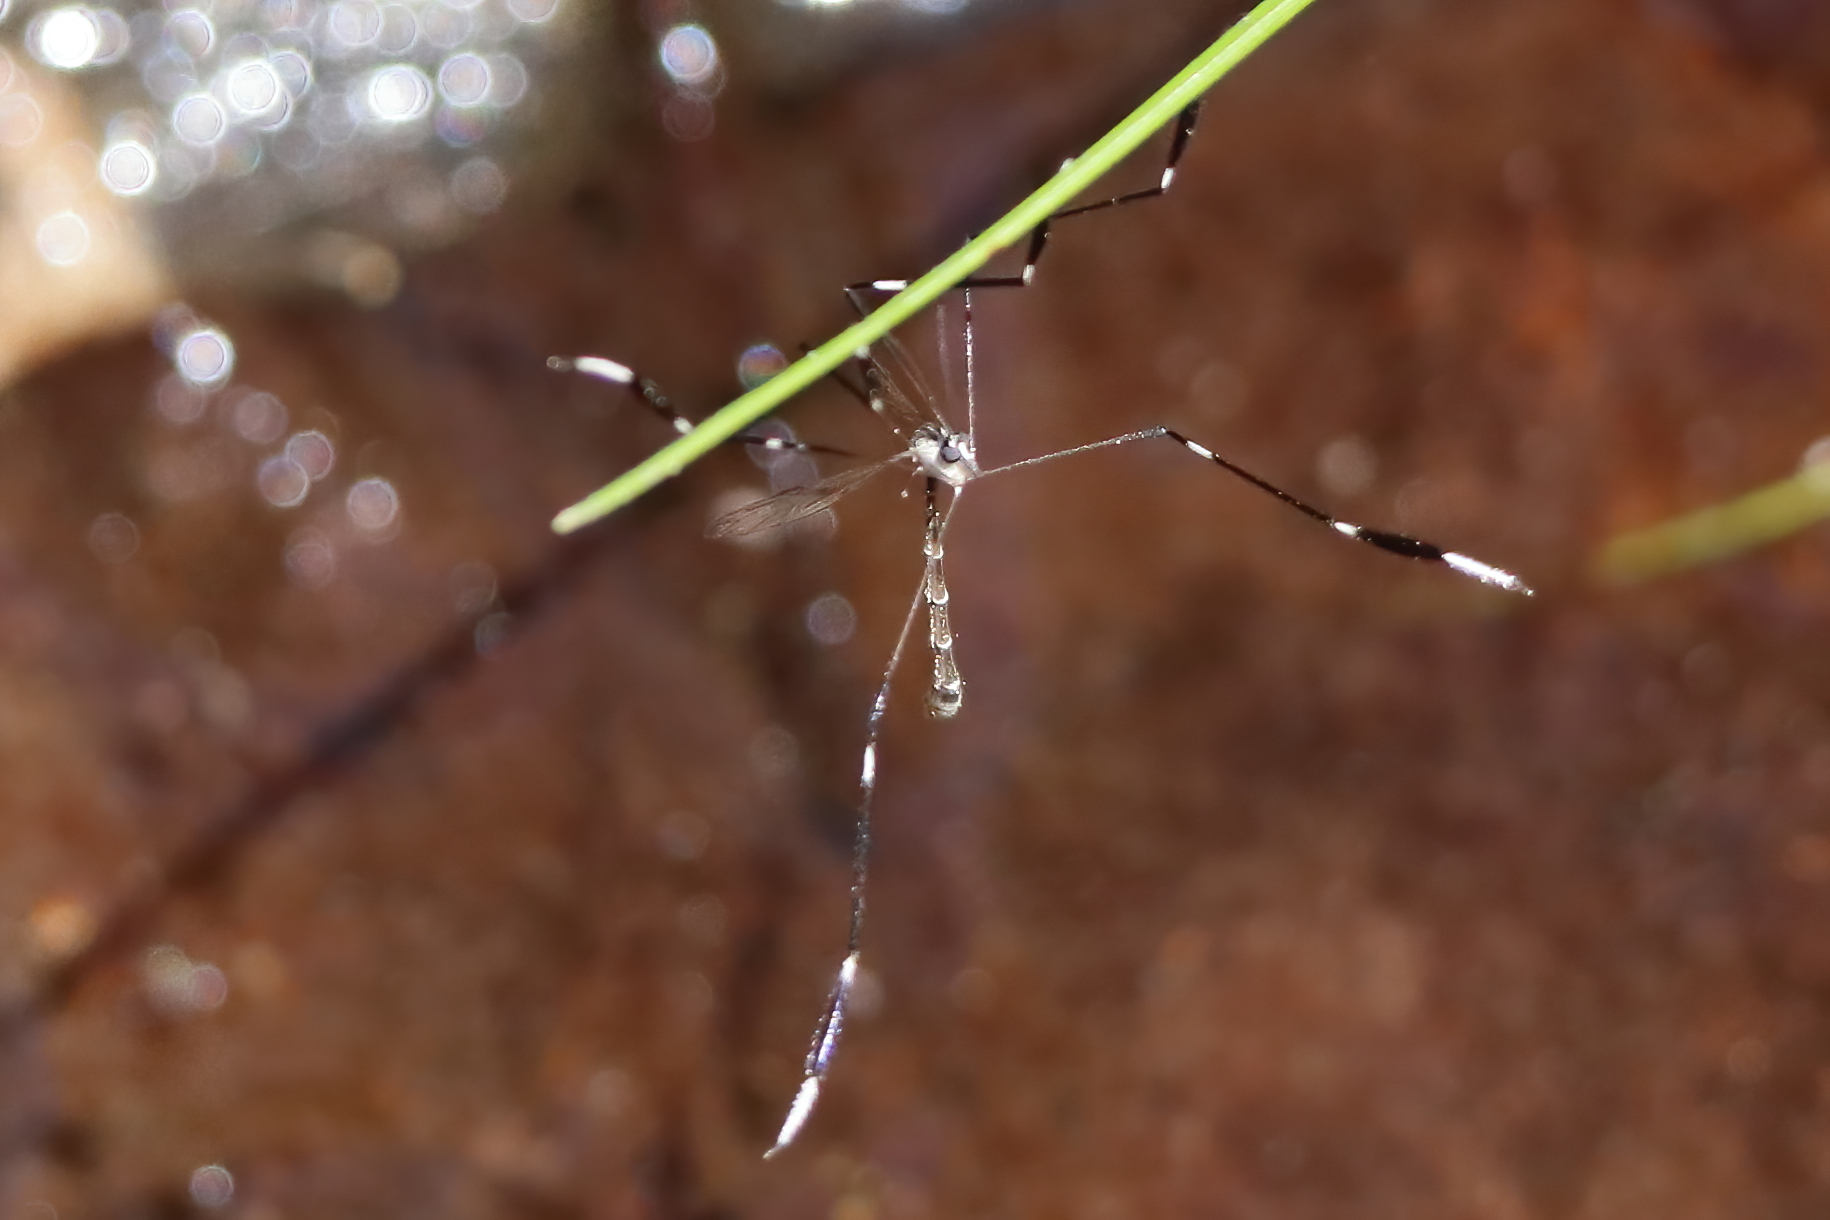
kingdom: Animalia
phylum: Arthropoda
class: Insecta
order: Diptera
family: Ptychopteridae
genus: Bittacomorpha
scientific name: Bittacomorpha clavipes
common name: Eastern phantom crane fly
